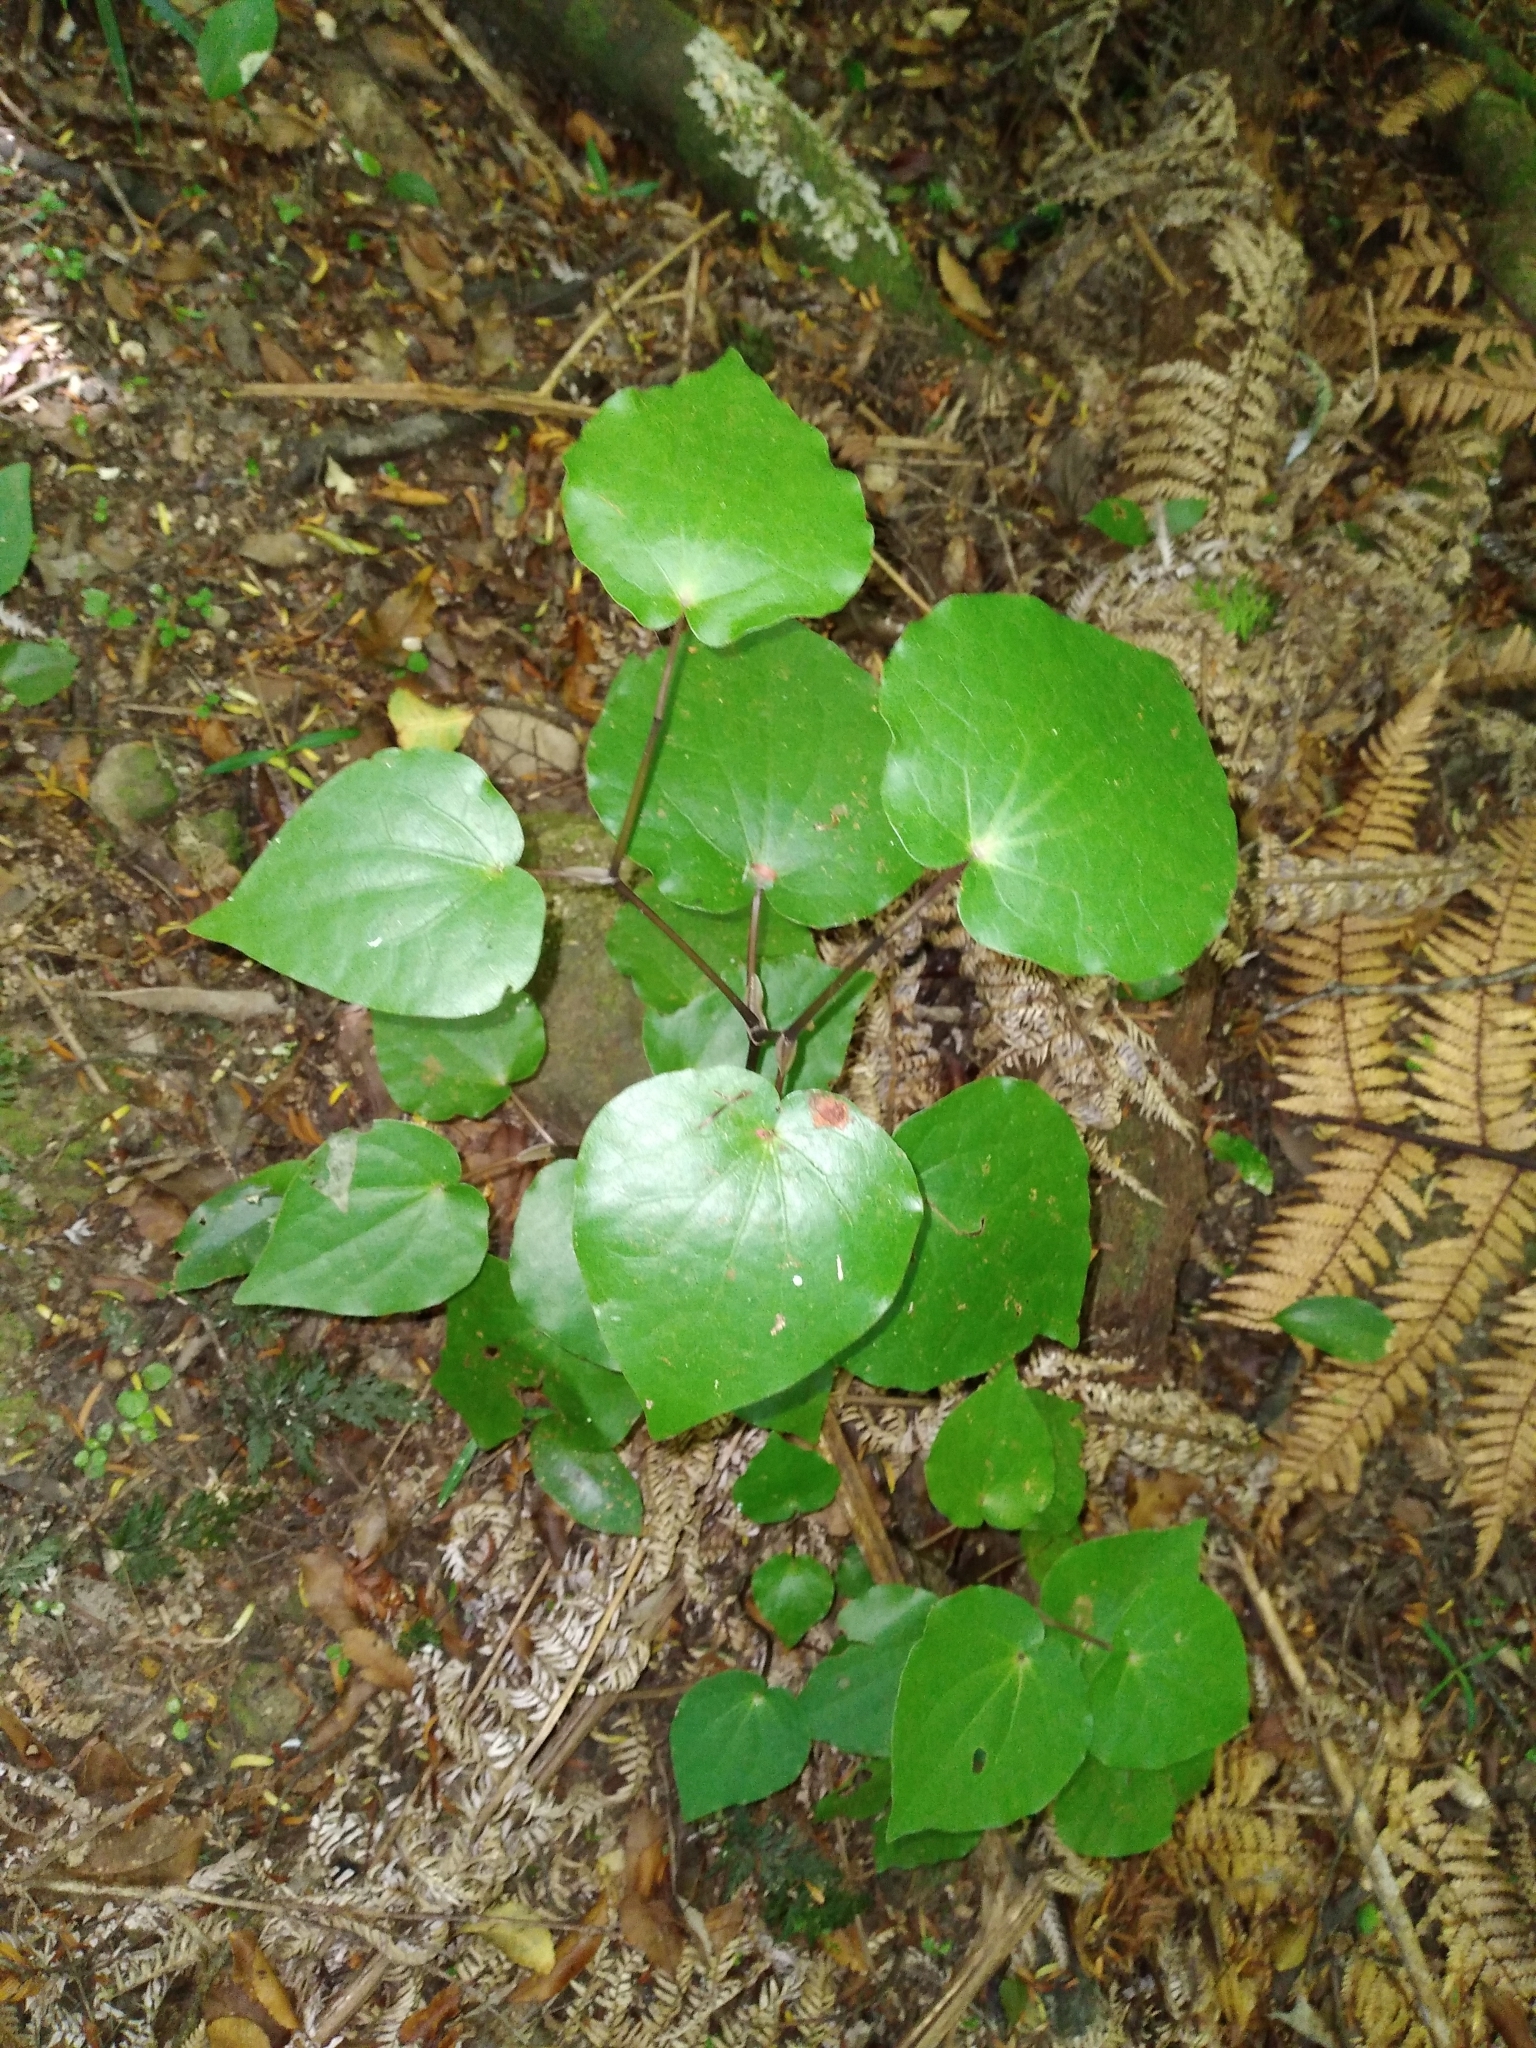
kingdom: Plantae
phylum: Tracheophyta
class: Magnoliopsida
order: Piperales
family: Piperaceae
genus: Macropiper
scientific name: Macropiper excelsum
